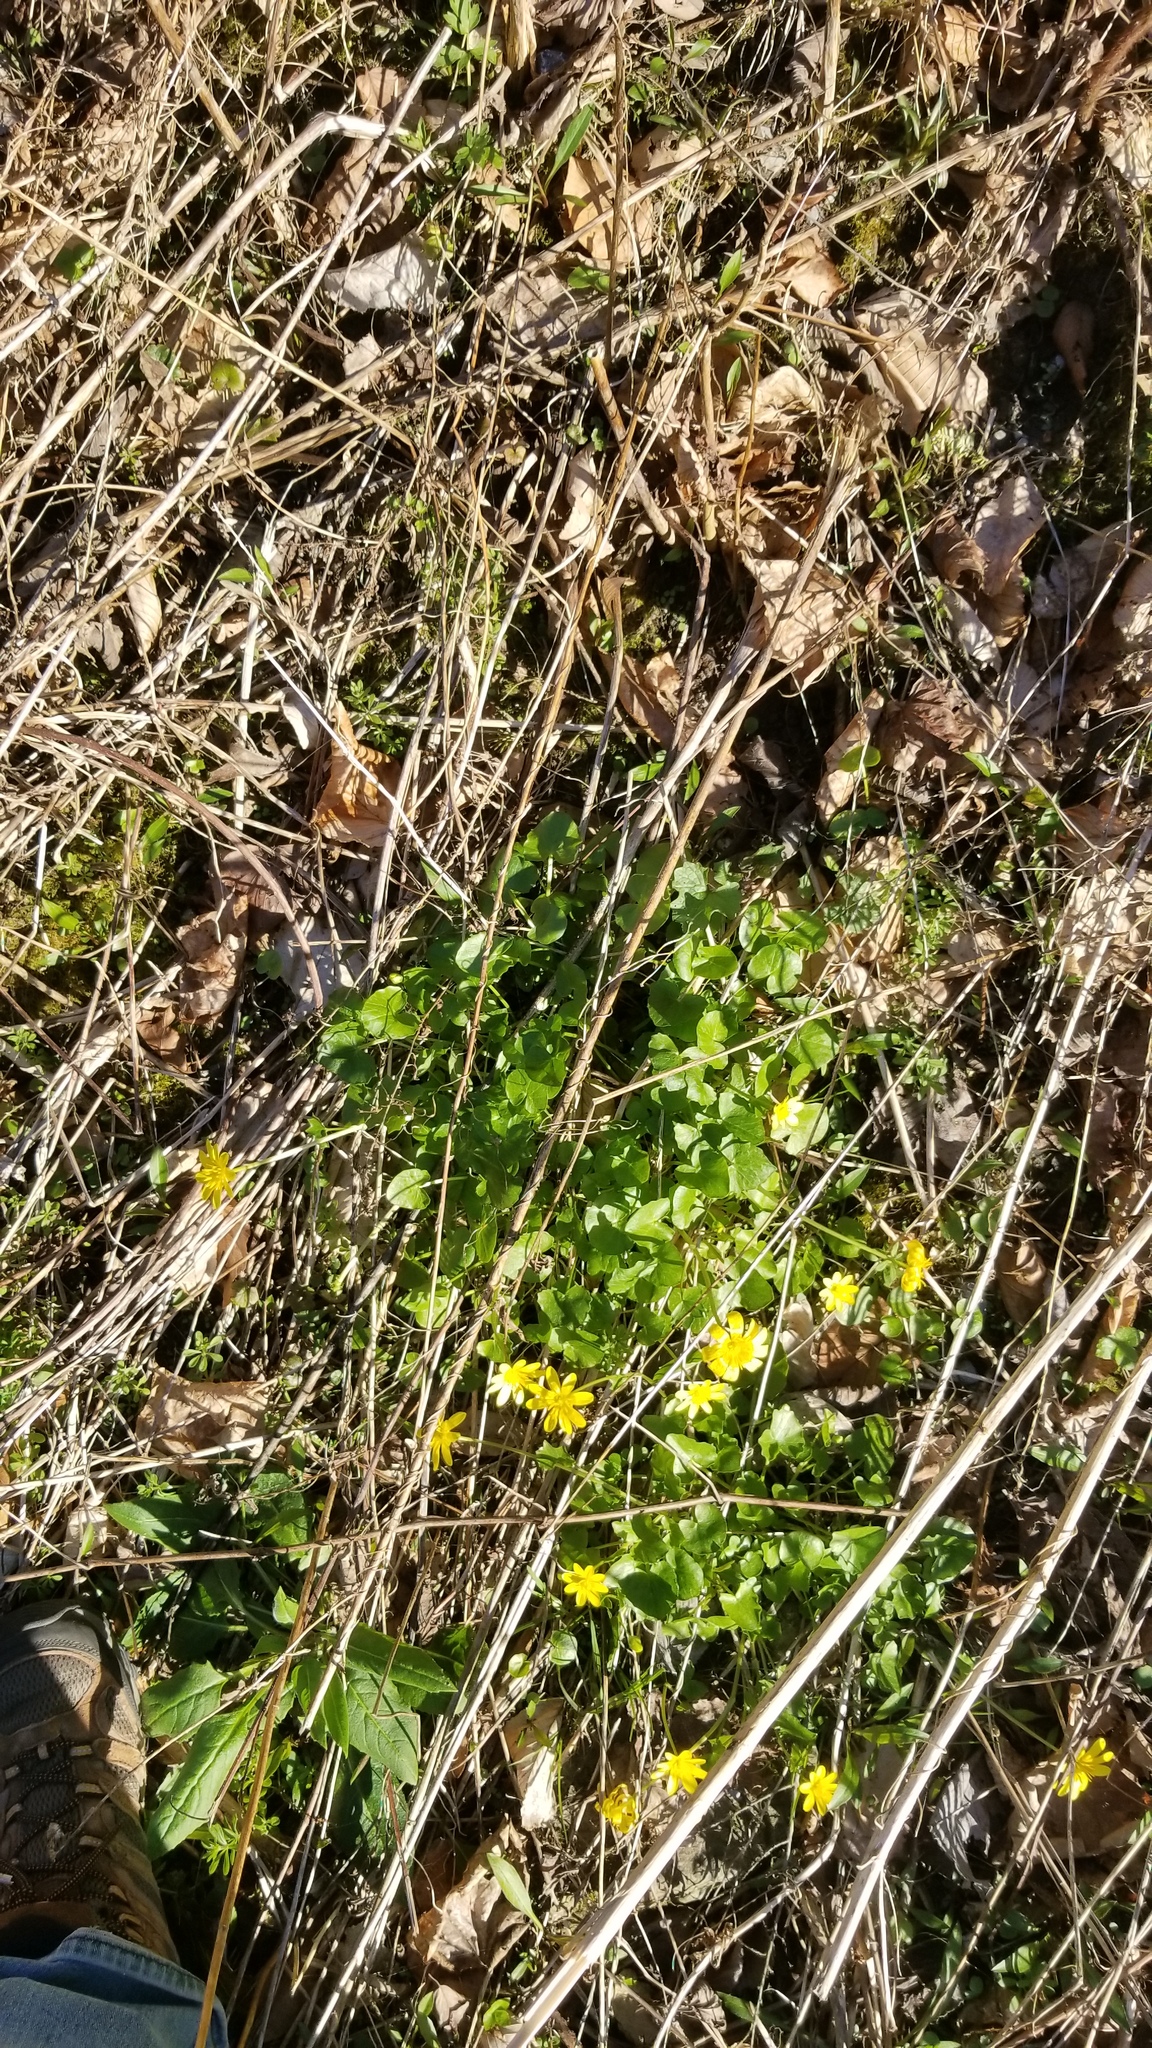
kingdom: Plantae
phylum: Tracheophyta
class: Magnoliopsida
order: Ranunculales
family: Ranunculaceae
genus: Ficaria
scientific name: Ficaria verna
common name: Lesser celandine
